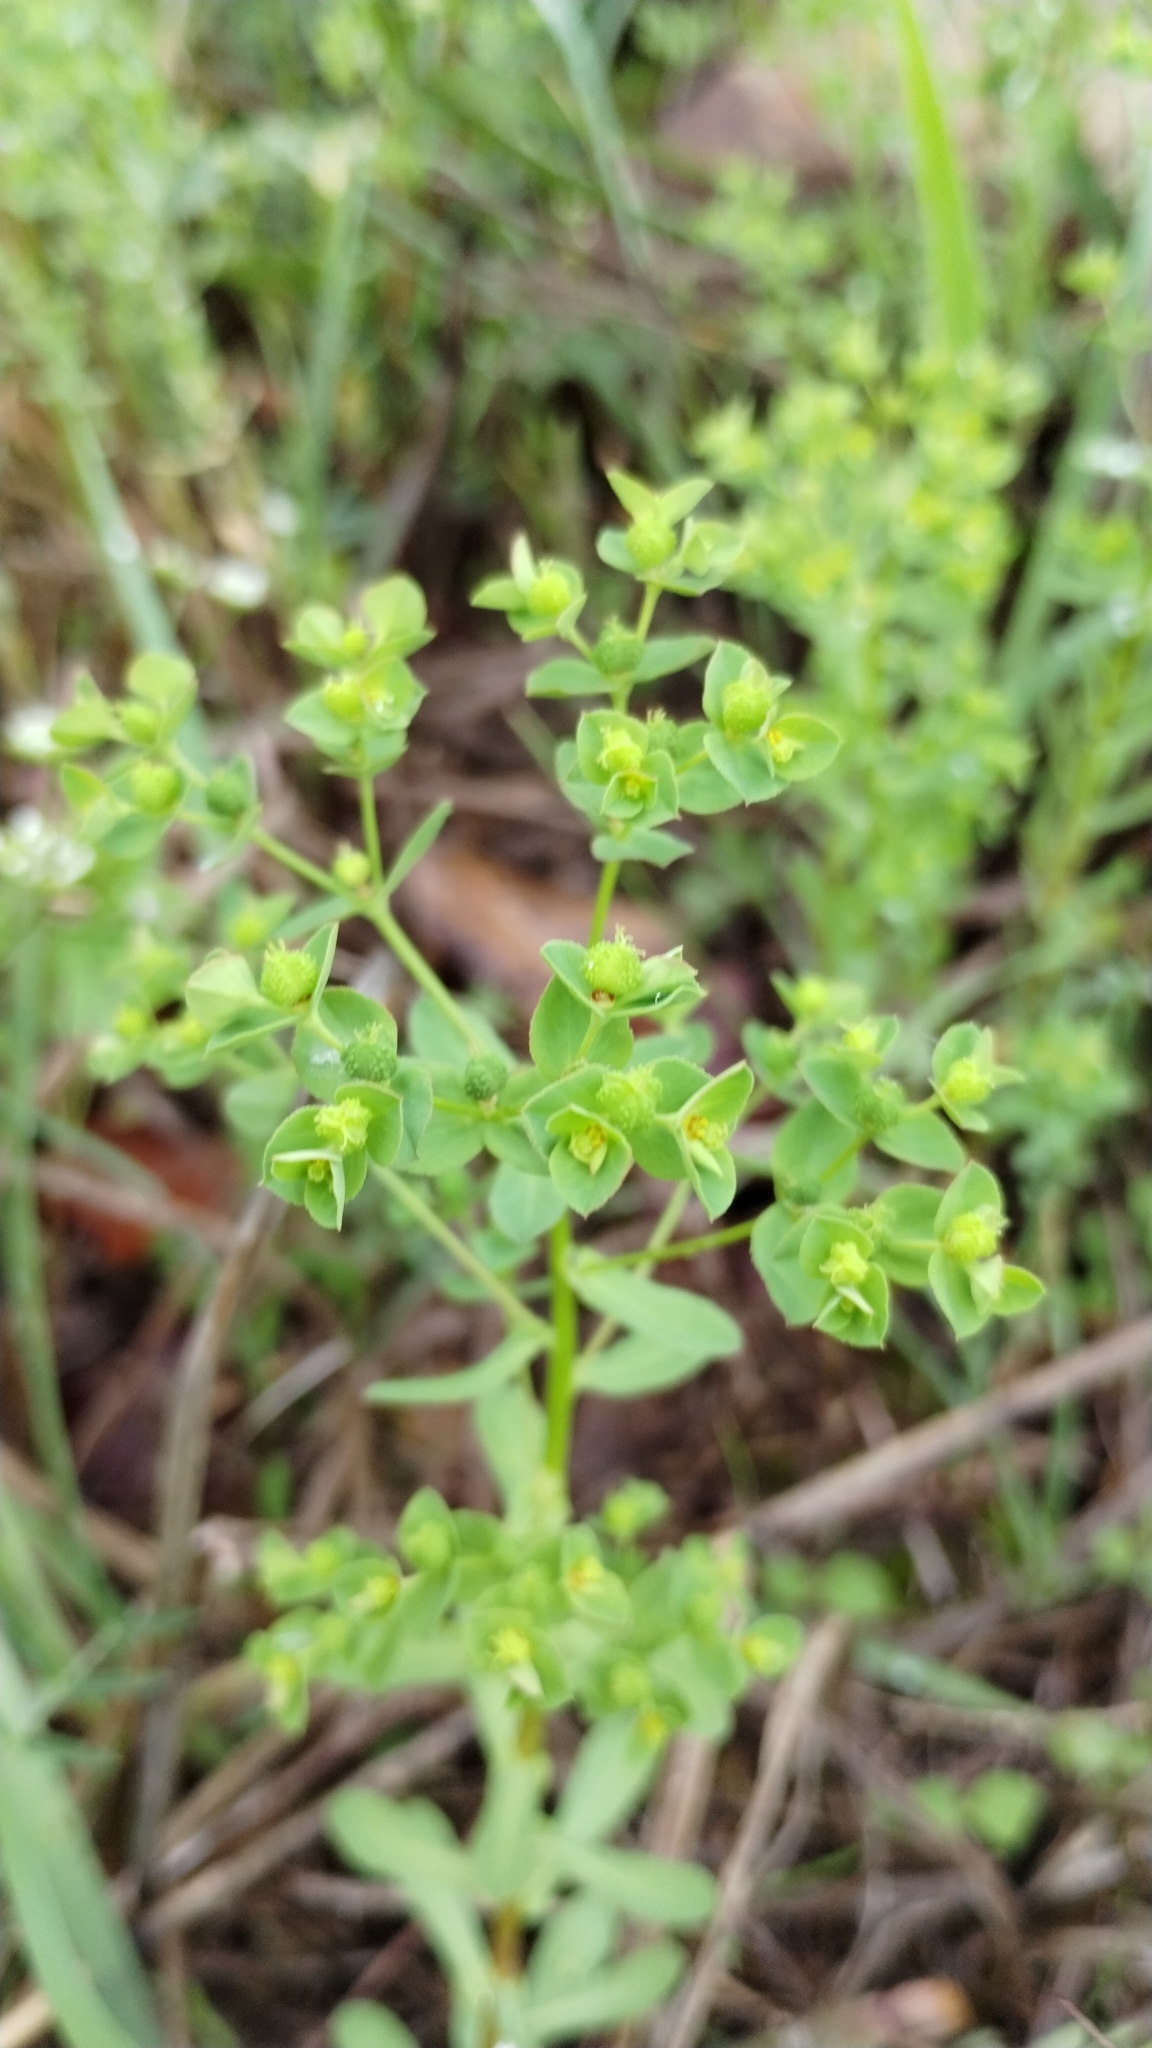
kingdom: Plantae
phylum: Tracheophyta
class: Magnoliopsida
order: Malpighiales
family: Euphorbiaceae
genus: Euphorbia
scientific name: Euphorbia spathulata
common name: Blunt spurge
